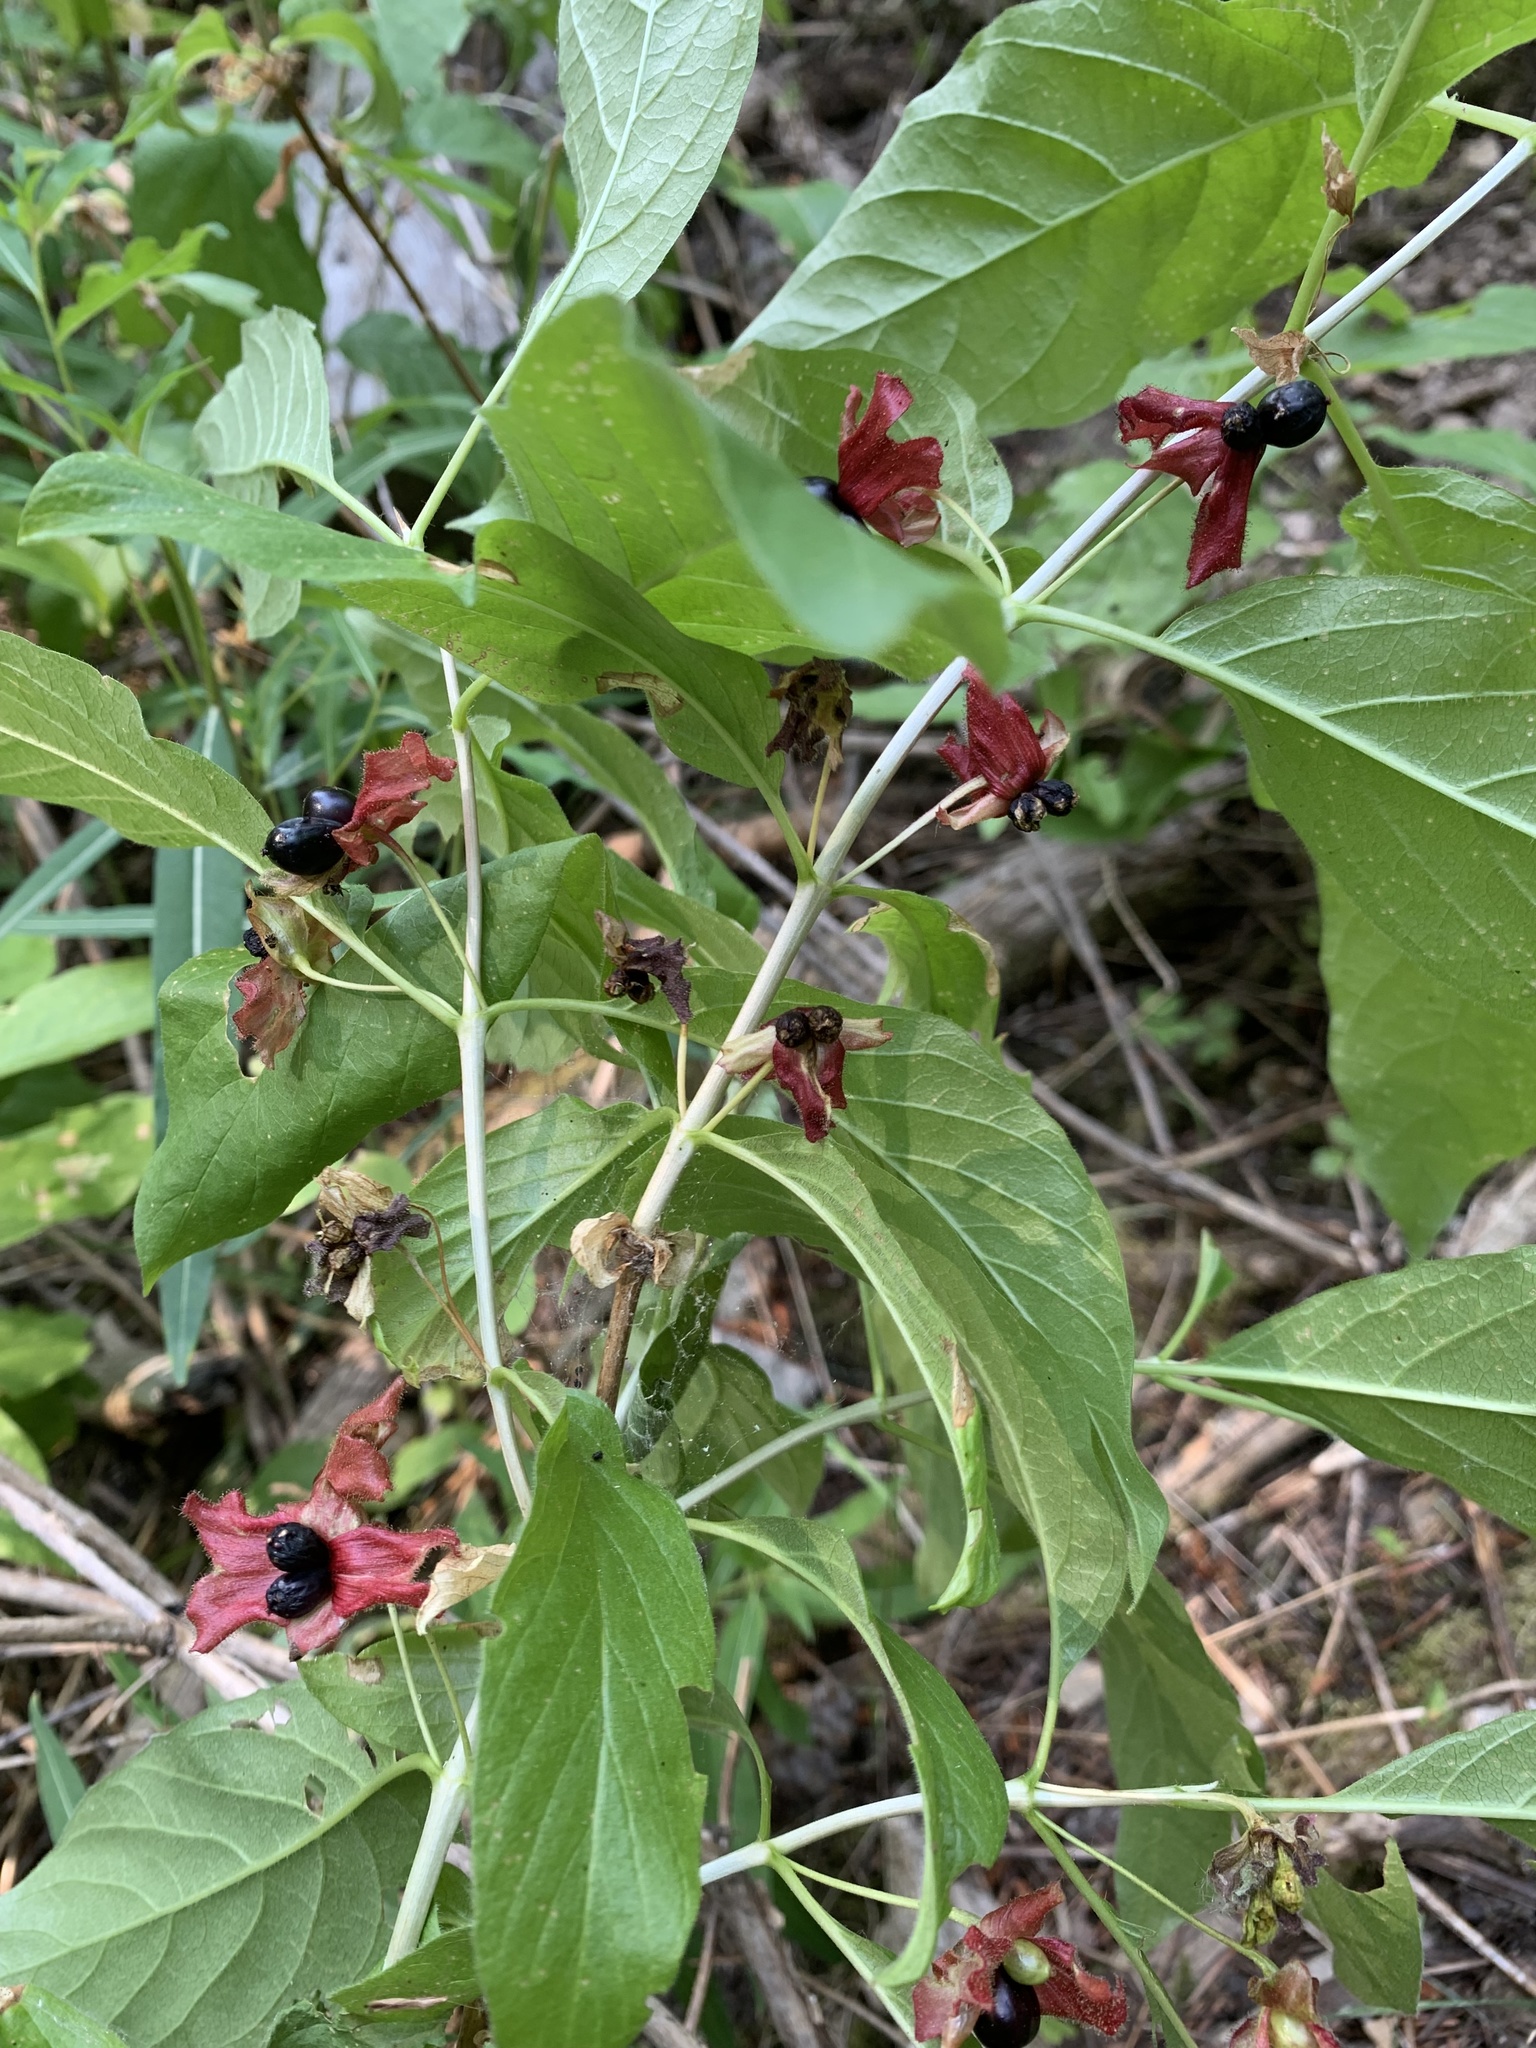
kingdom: Plantae
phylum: Tracheophyta
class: Magnoliopsida
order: Dipsacales
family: Caprifoliaceae
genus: Lonicera
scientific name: Lonicera involucrata
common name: Californian honeysuckle
